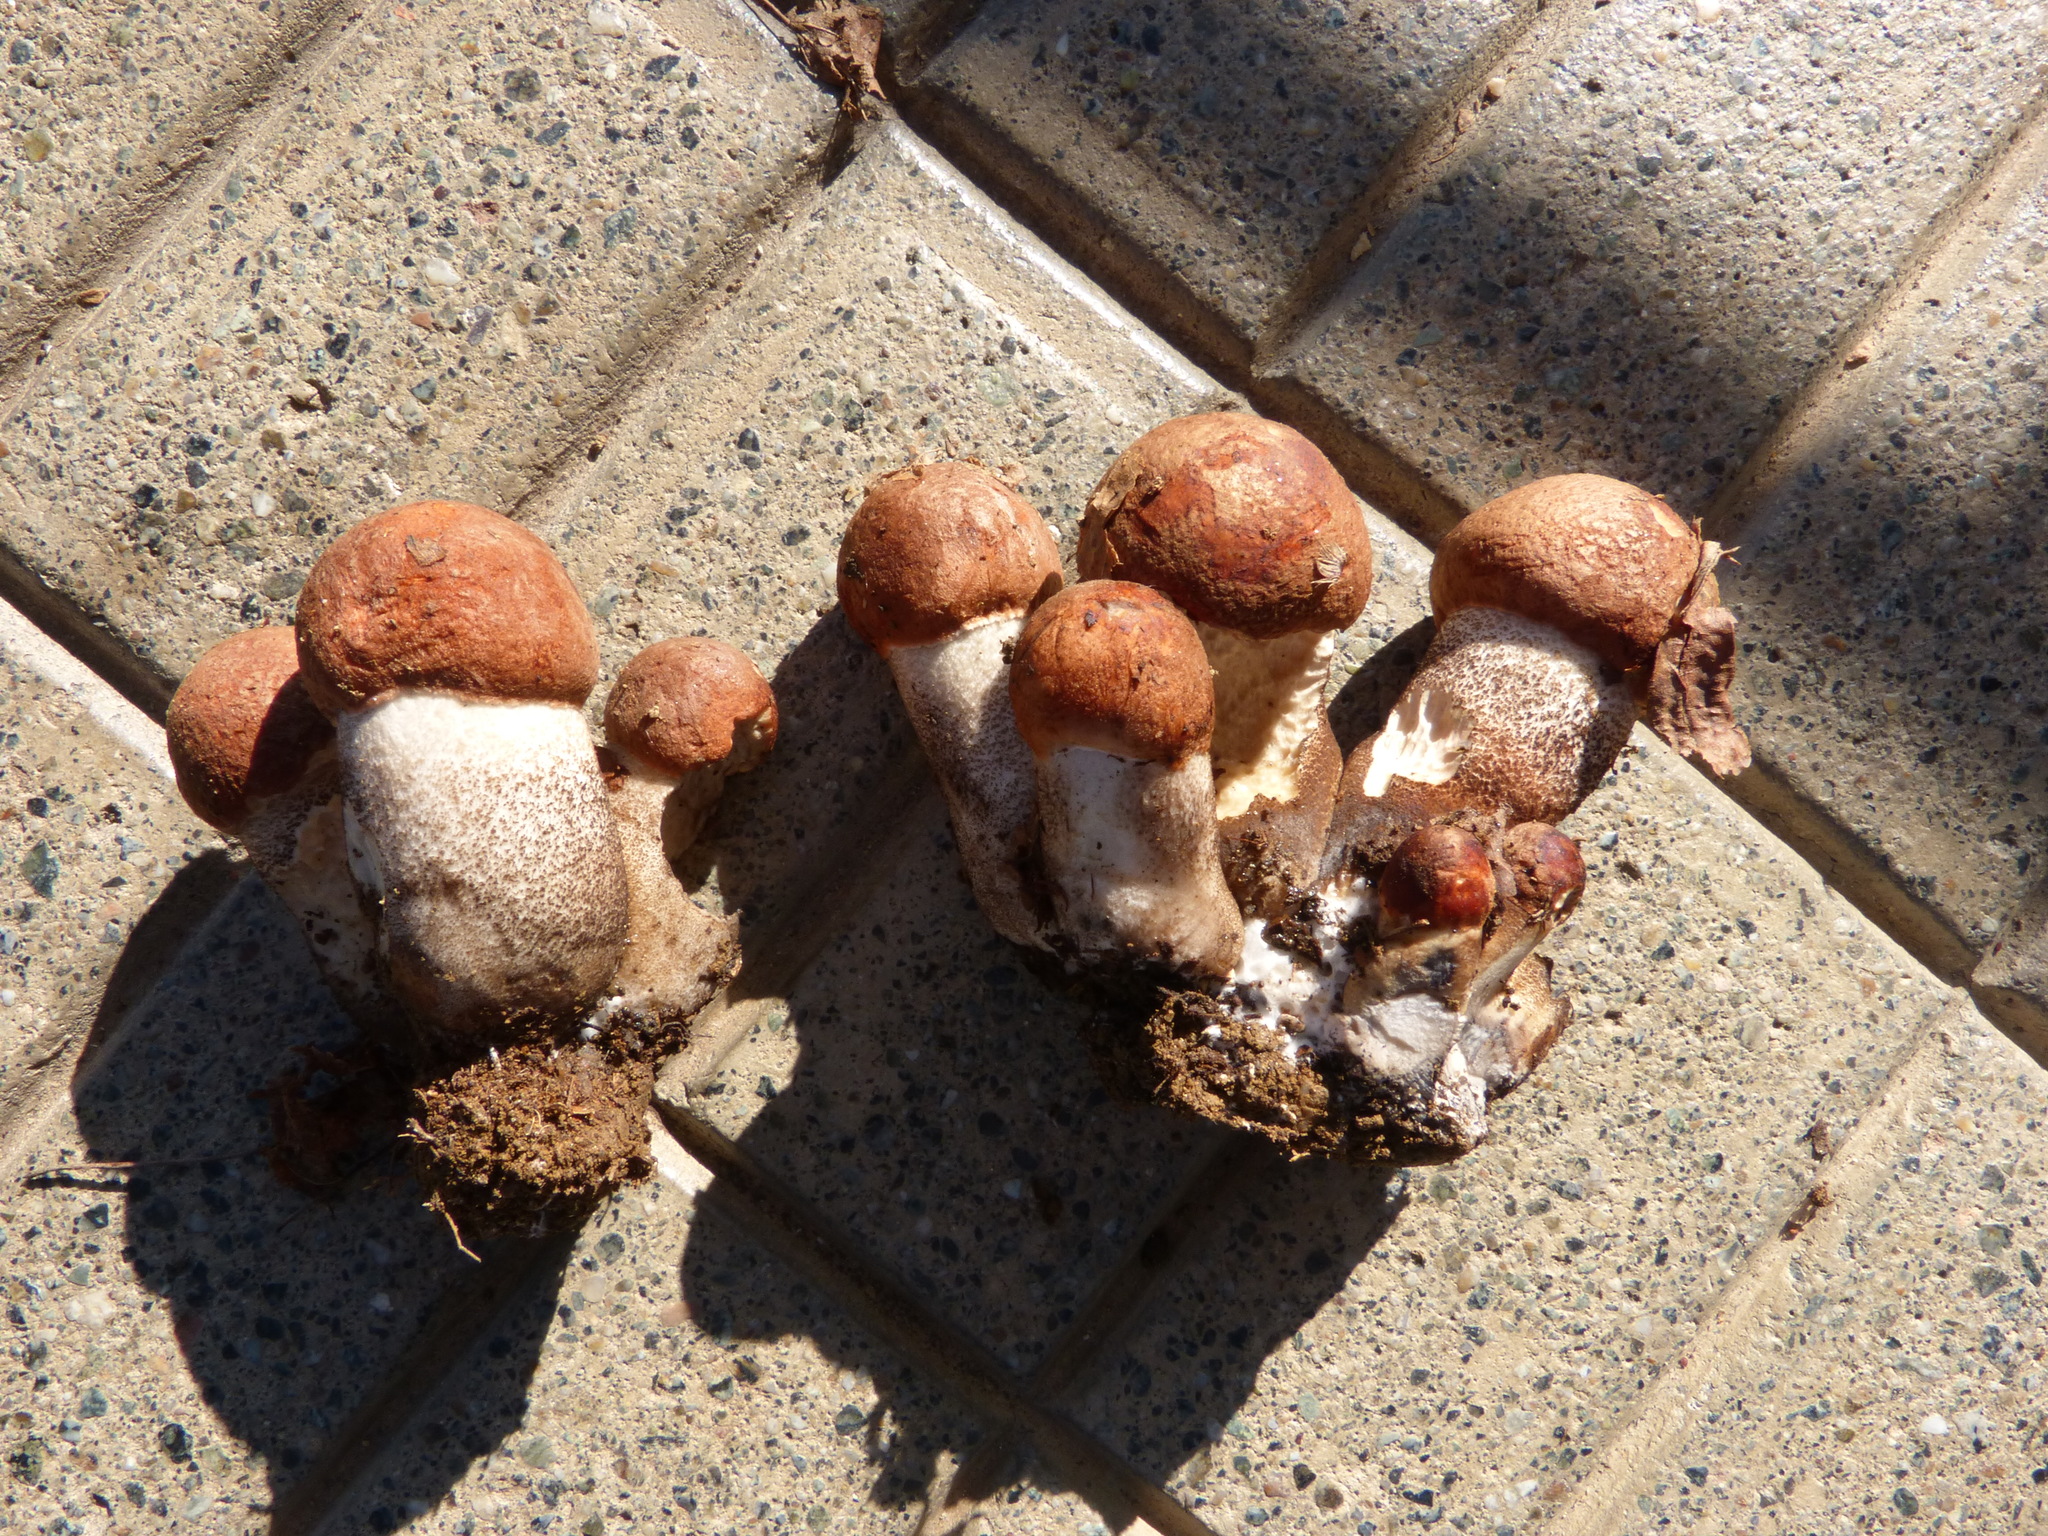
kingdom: Fungi
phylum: Basidiomycota
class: Agaricomycetes
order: Boletales
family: Boletaceae
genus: Leccinum
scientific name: Leccinum aurantiacum
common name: Orange bolete
